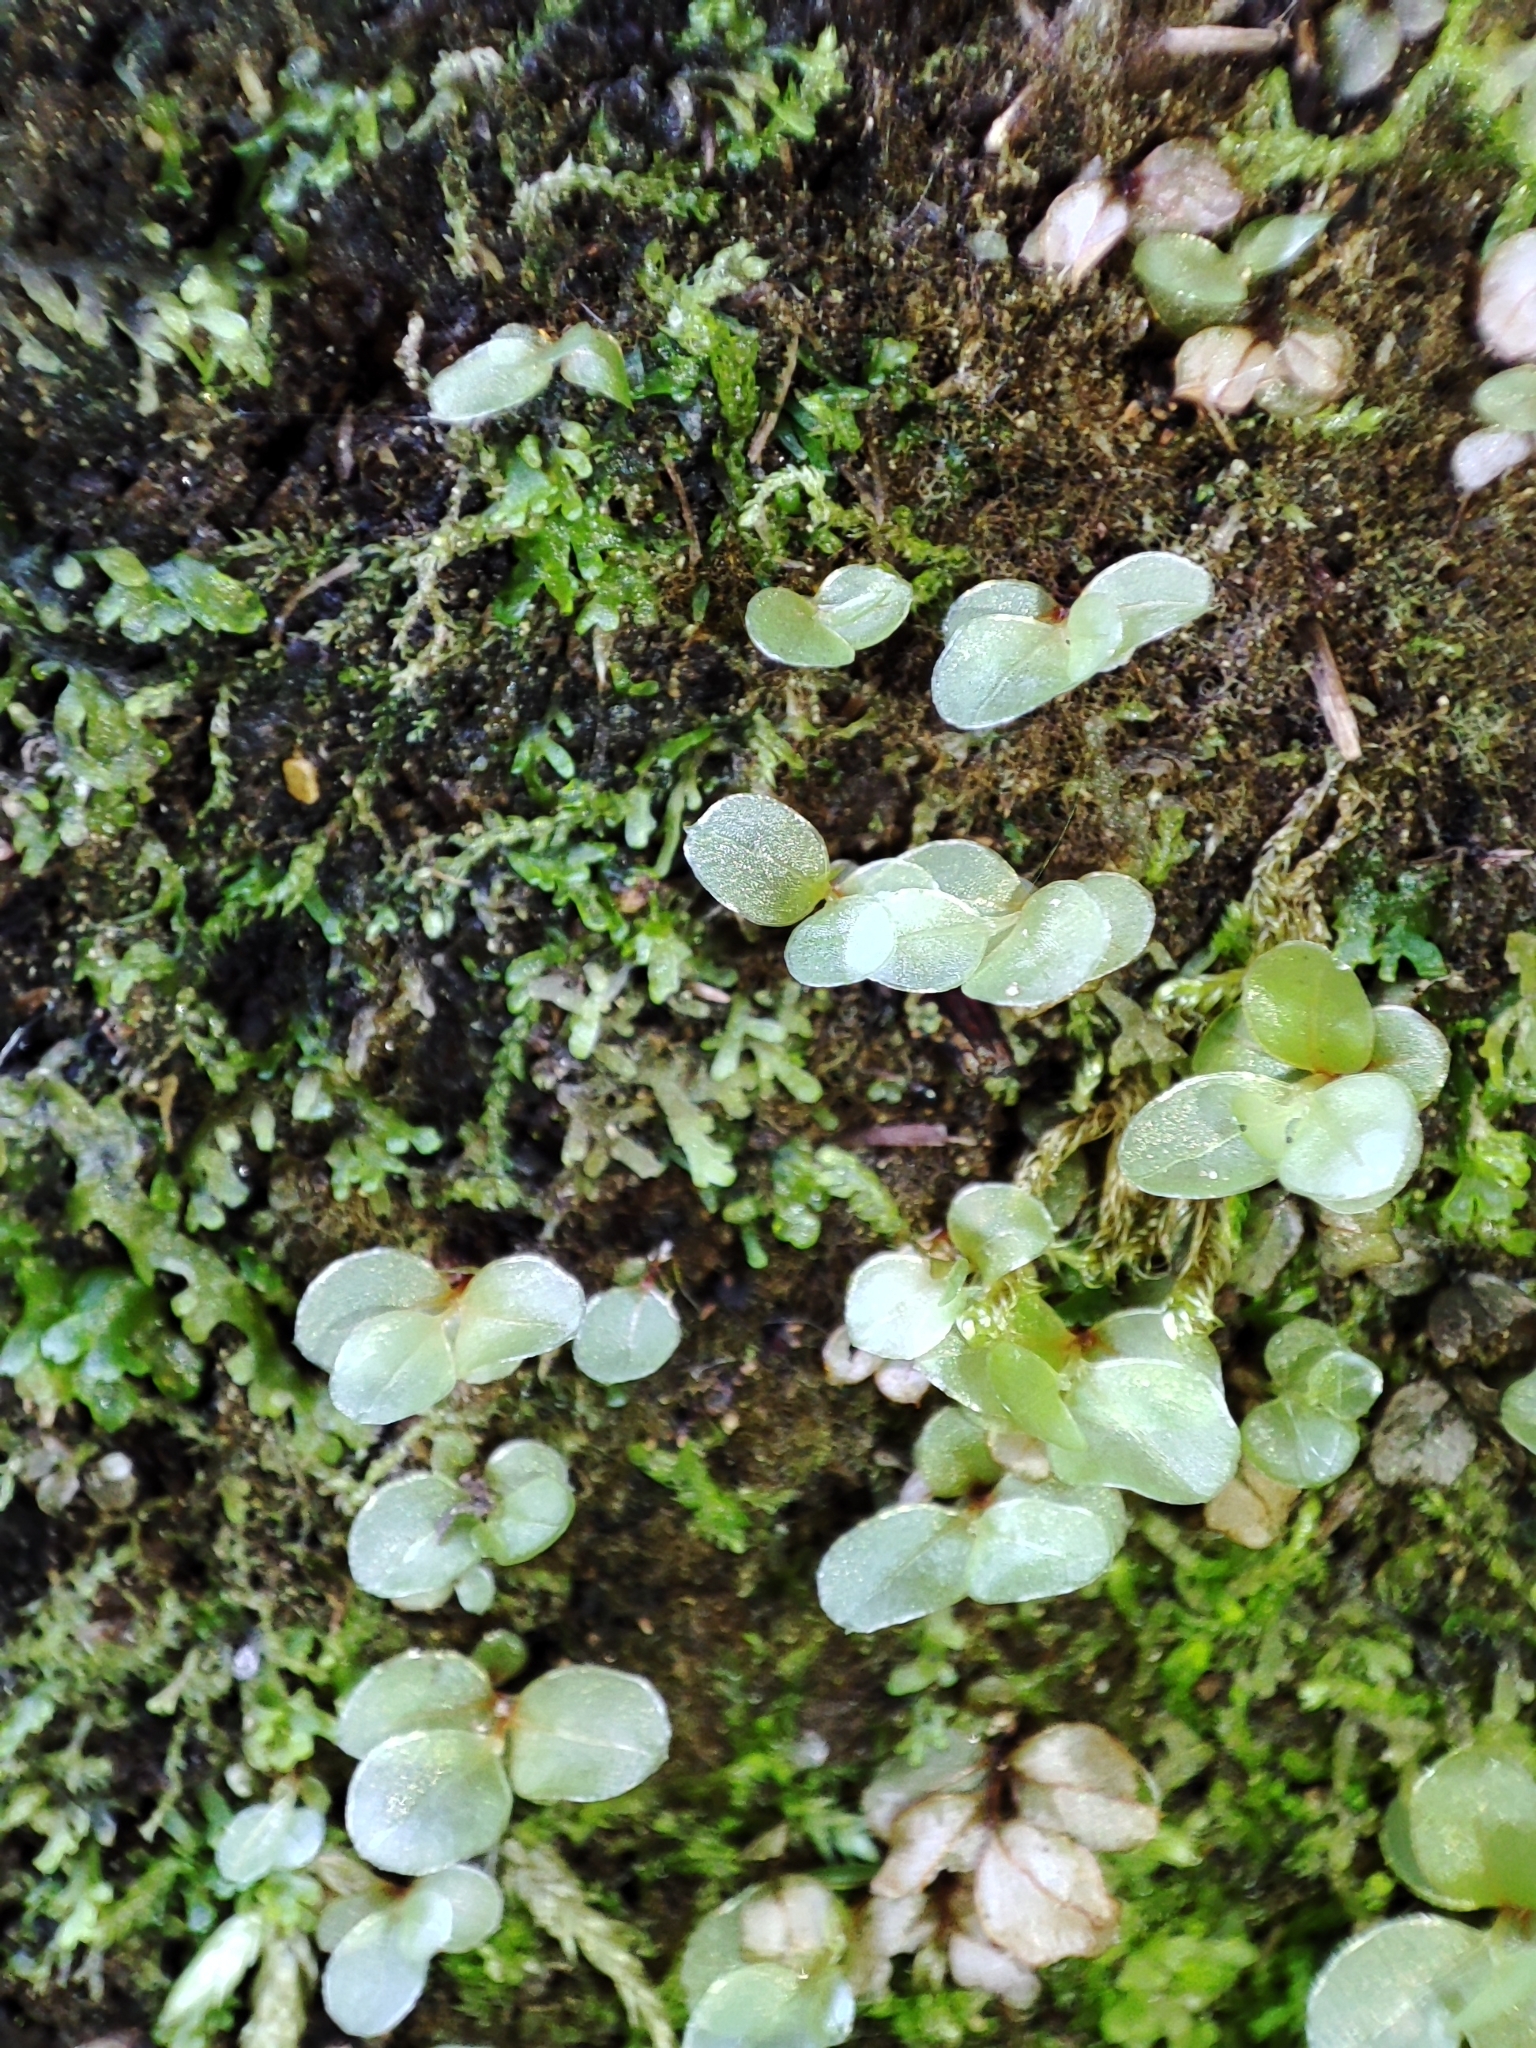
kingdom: Plantae
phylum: Bryophyta
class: Bryopsida
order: Bryales
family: Mniaceae
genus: Rhizomnium
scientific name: Rhizomnium punctatum
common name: Dotted leafy moss
